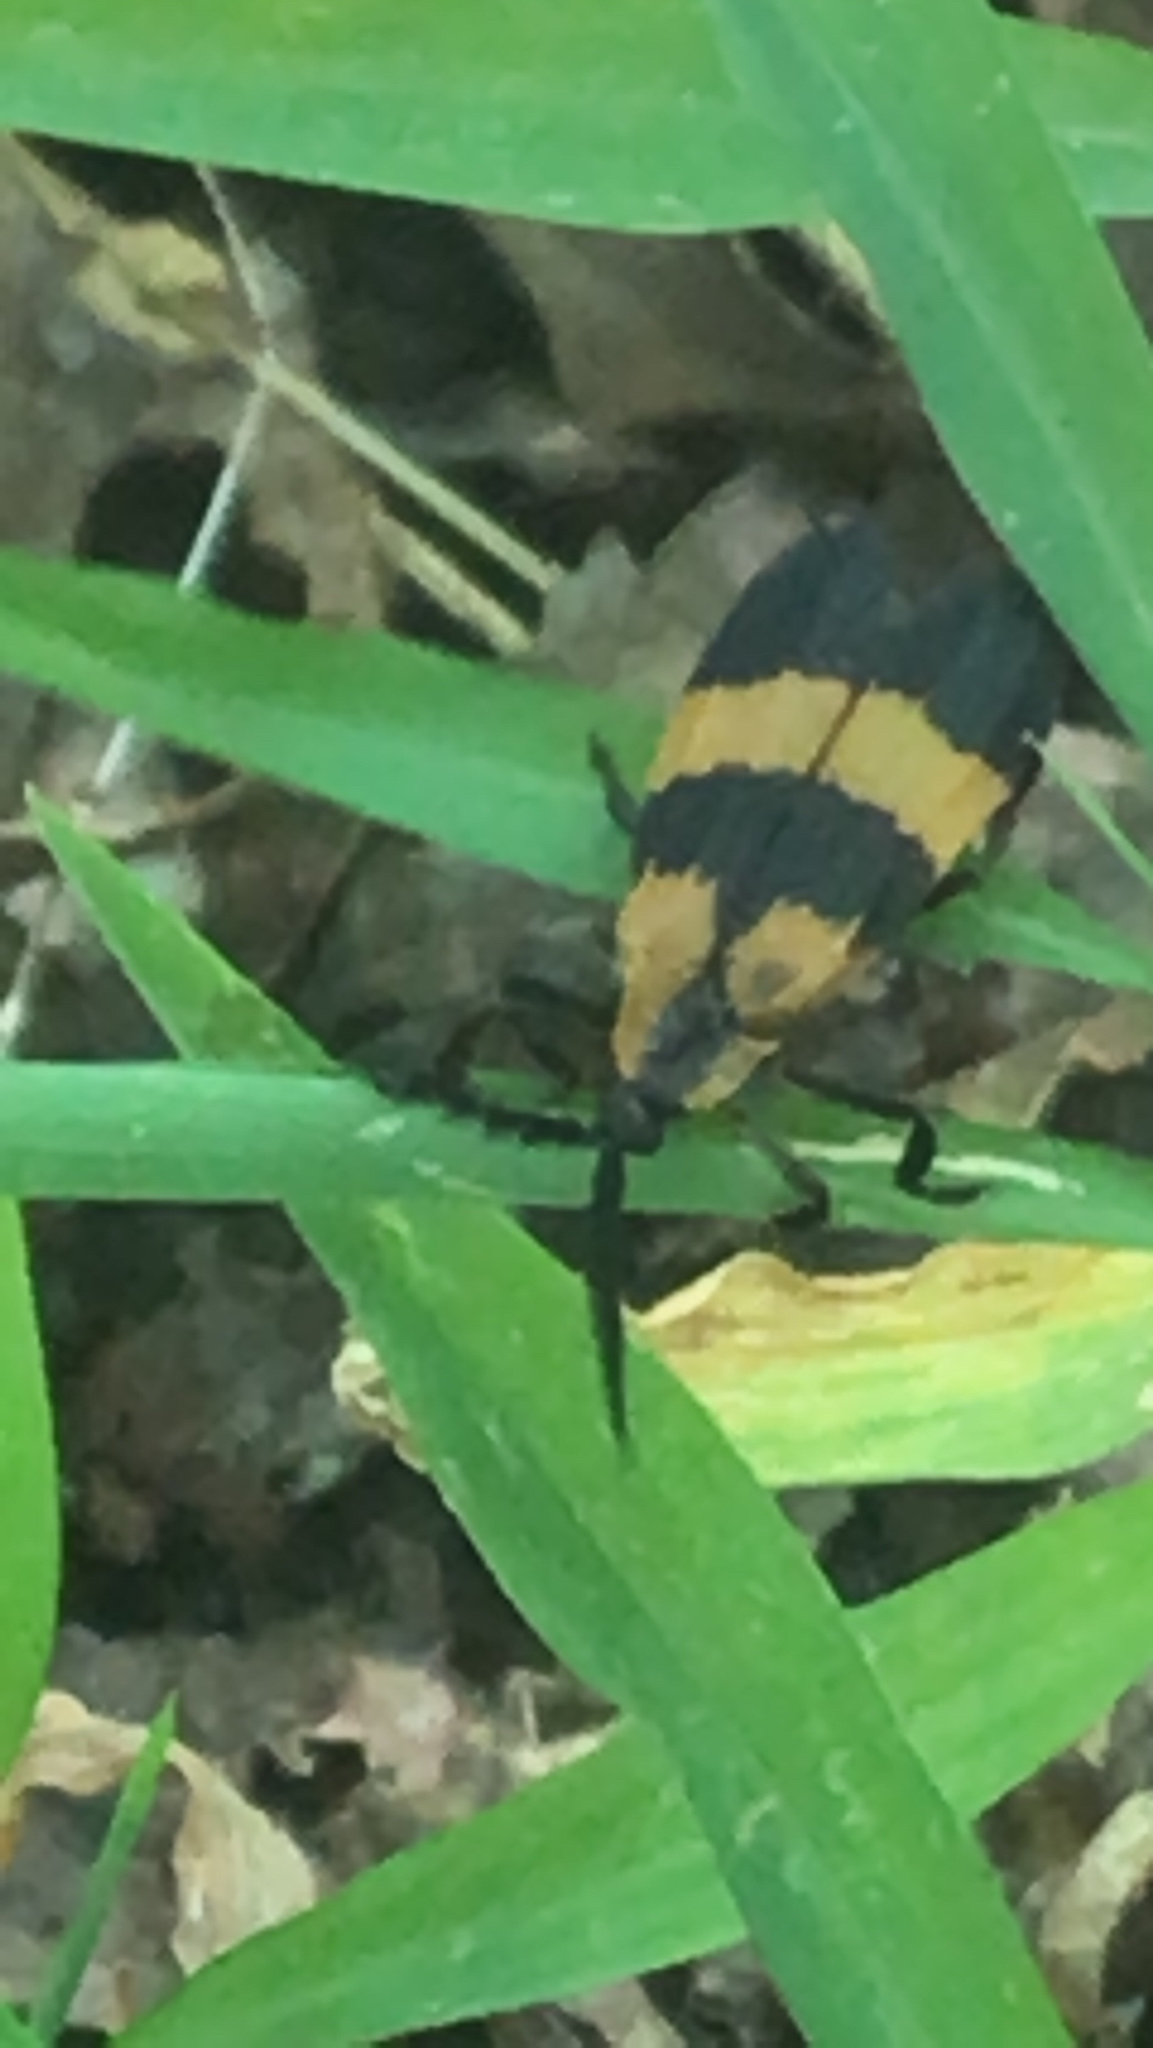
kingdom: Animalia
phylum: Arthropoda
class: Insecta
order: Coleoptera
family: Lycidae
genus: Calopteron
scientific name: Calopteron reticulatum
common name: Banded net-winged beetle
